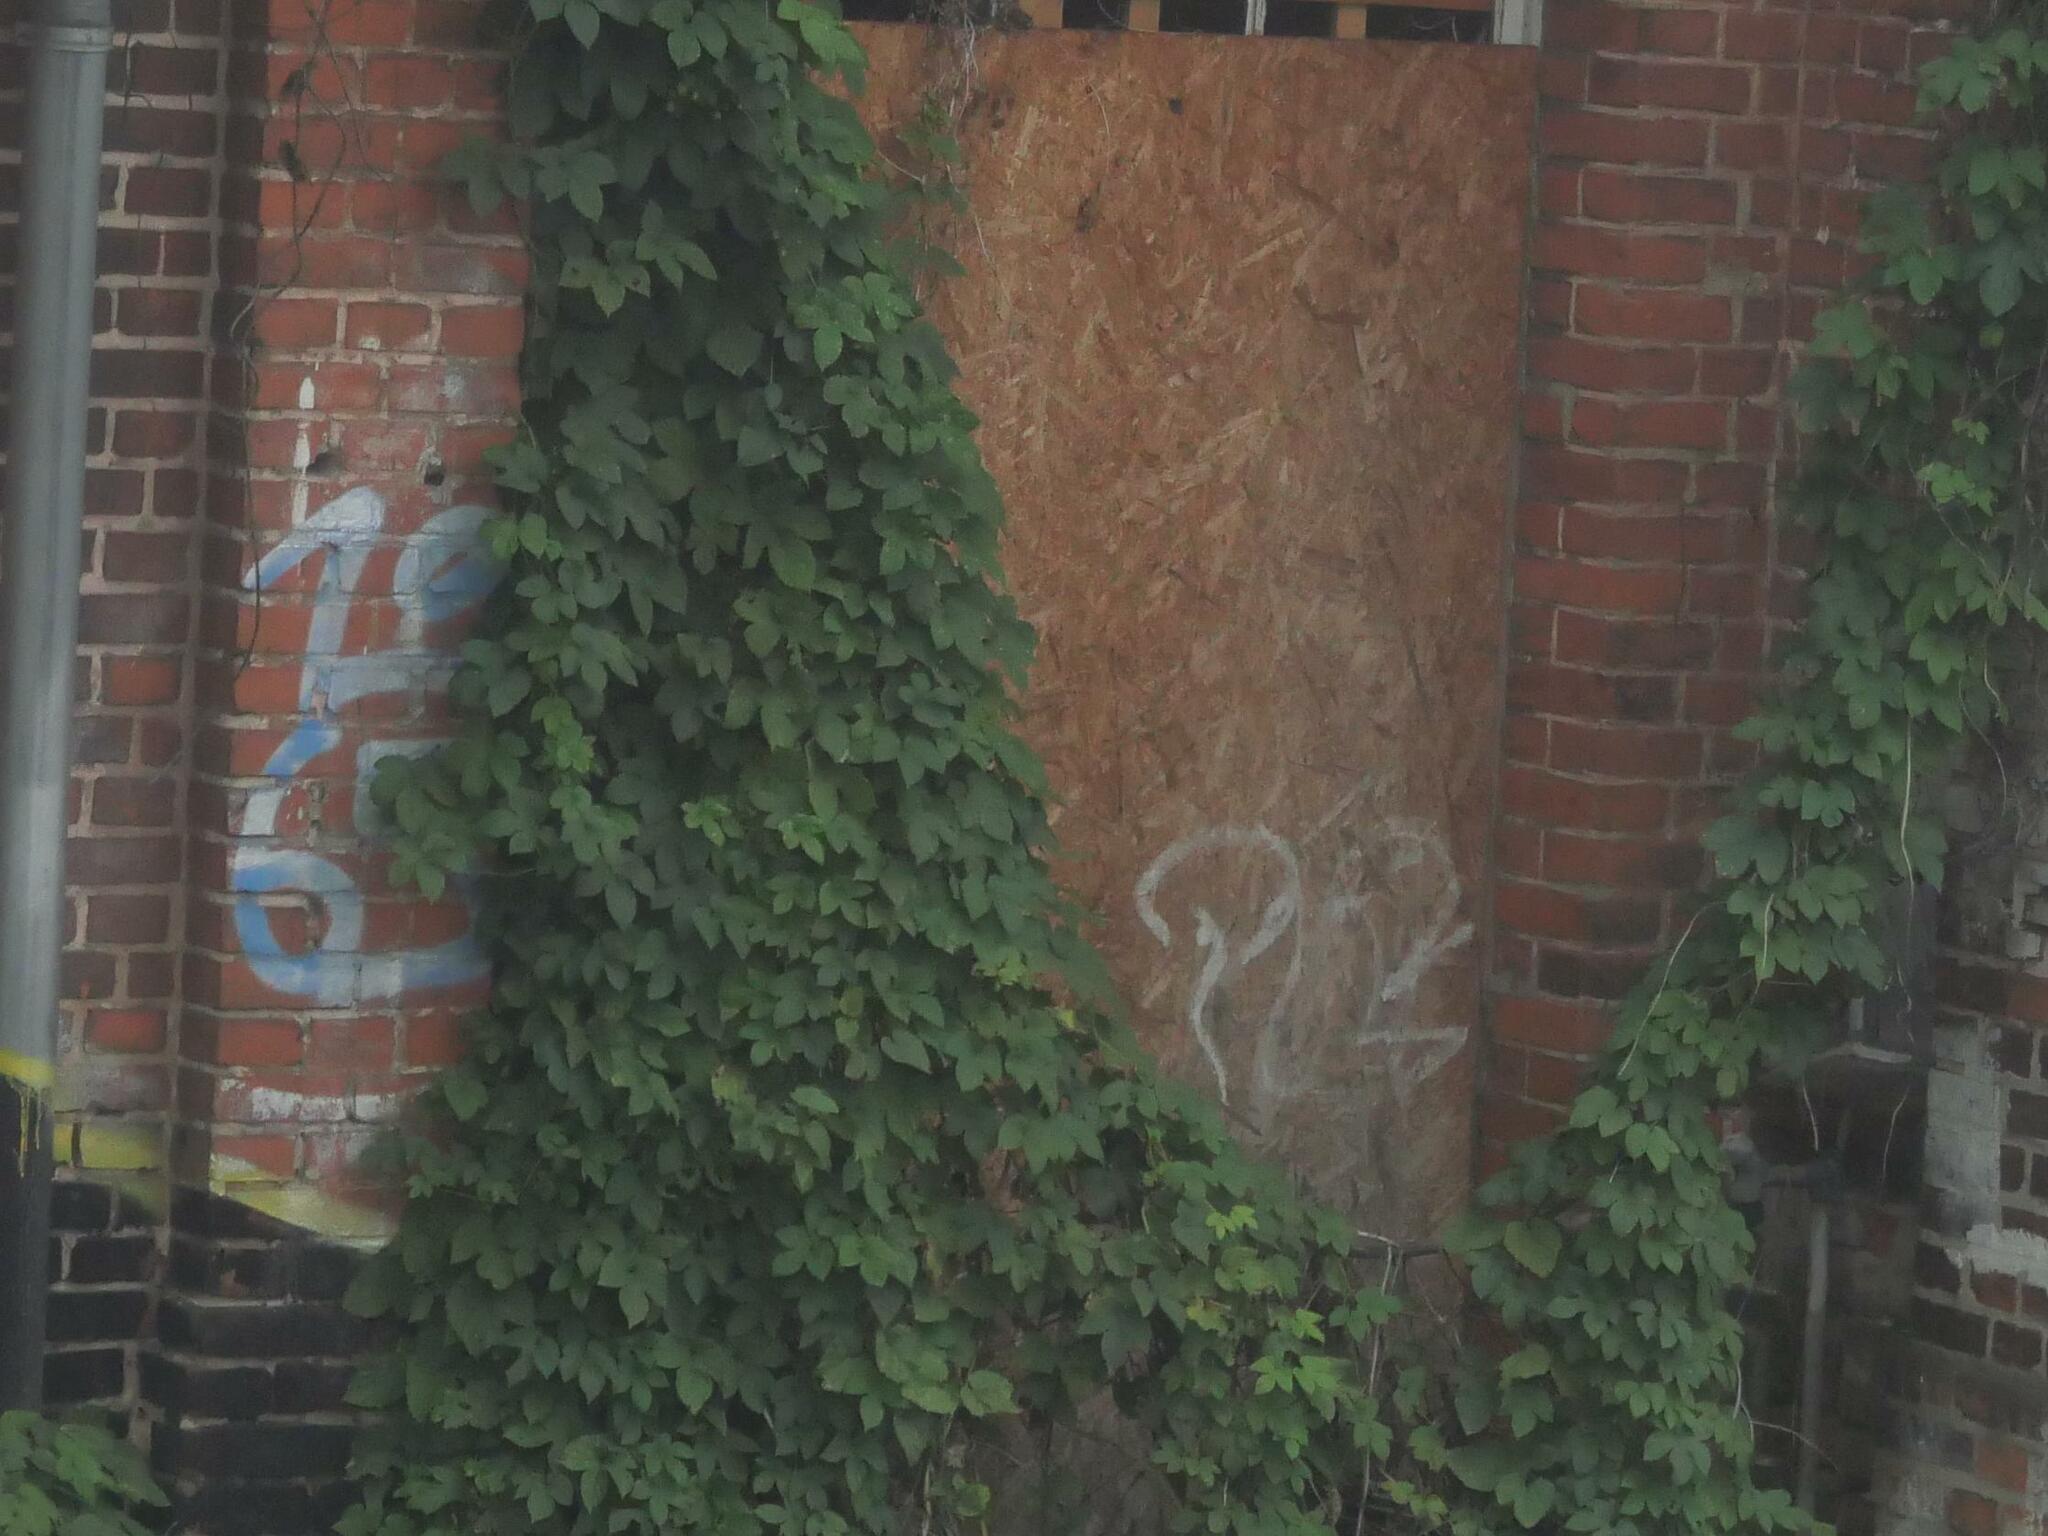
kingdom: Plantae
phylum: Tracheophyta
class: Magnoliopsida
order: Rosales
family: Cannabaceae
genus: Humulus
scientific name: Humulus lupulus
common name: Hop
